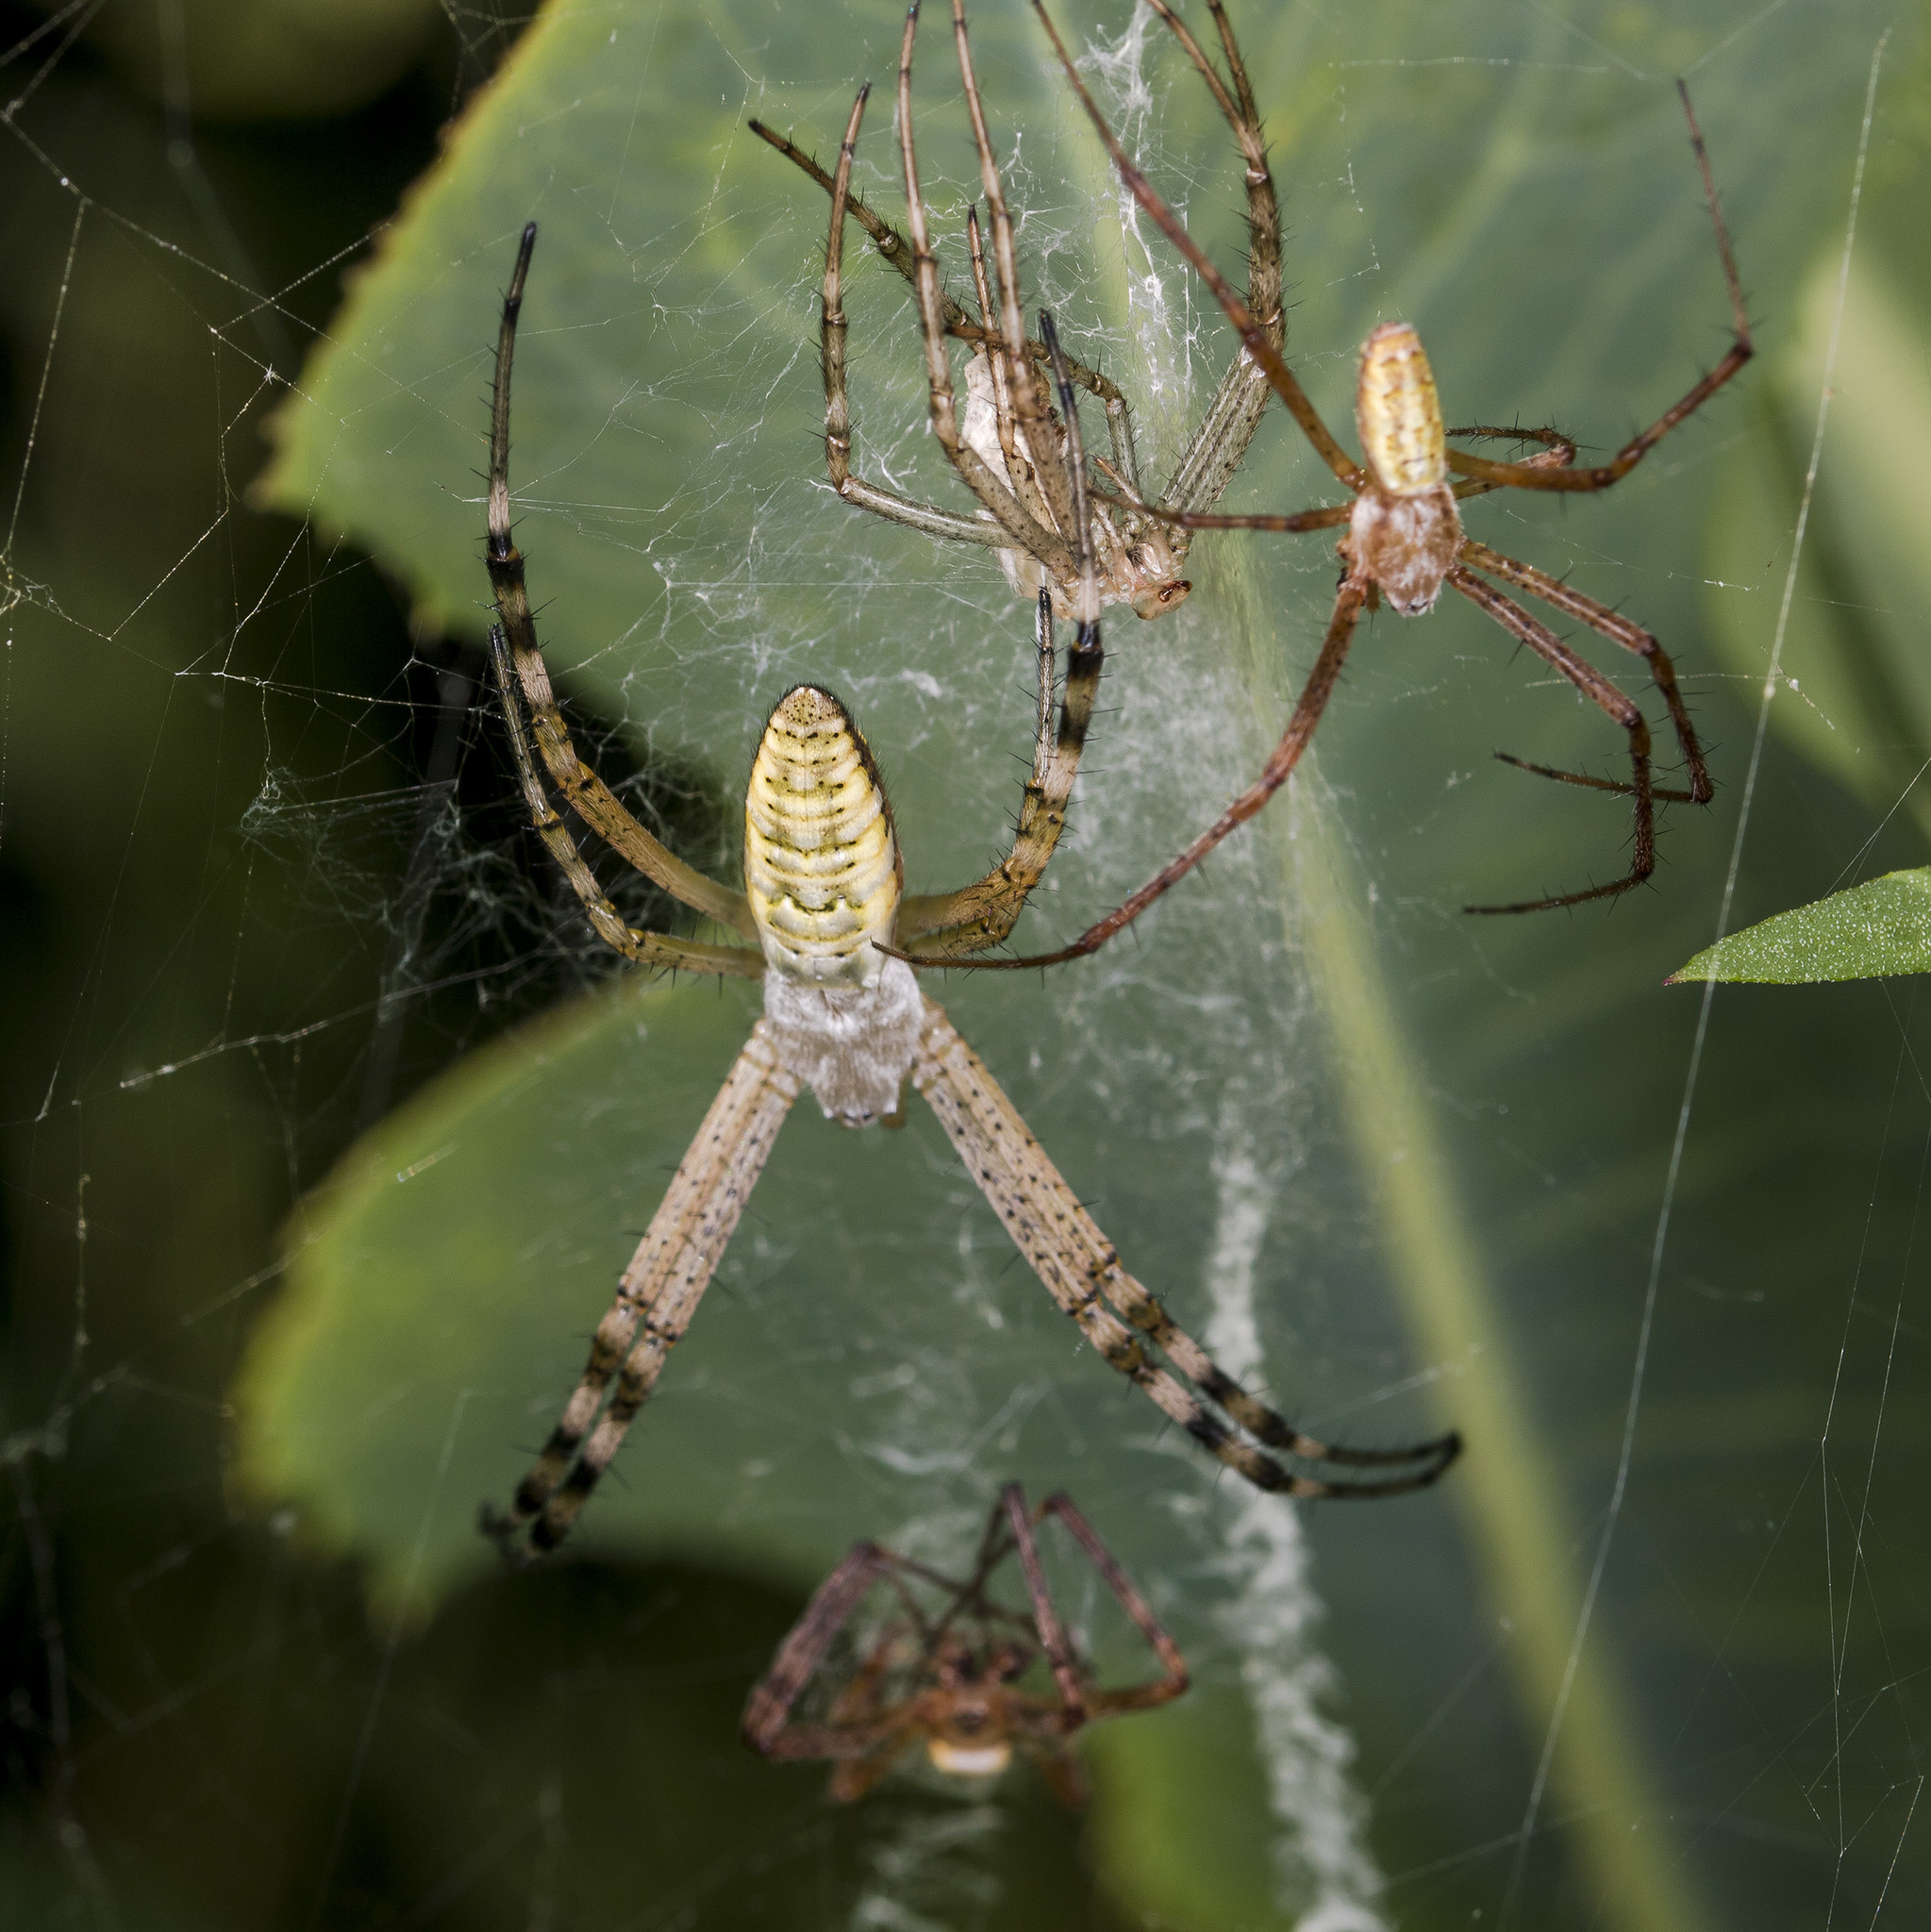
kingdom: Animalia
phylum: Arthropoda
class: Arachnida
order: Araneae
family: Araneidae
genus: Argiope
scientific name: Argiope bruennichi
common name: Wasp spider
